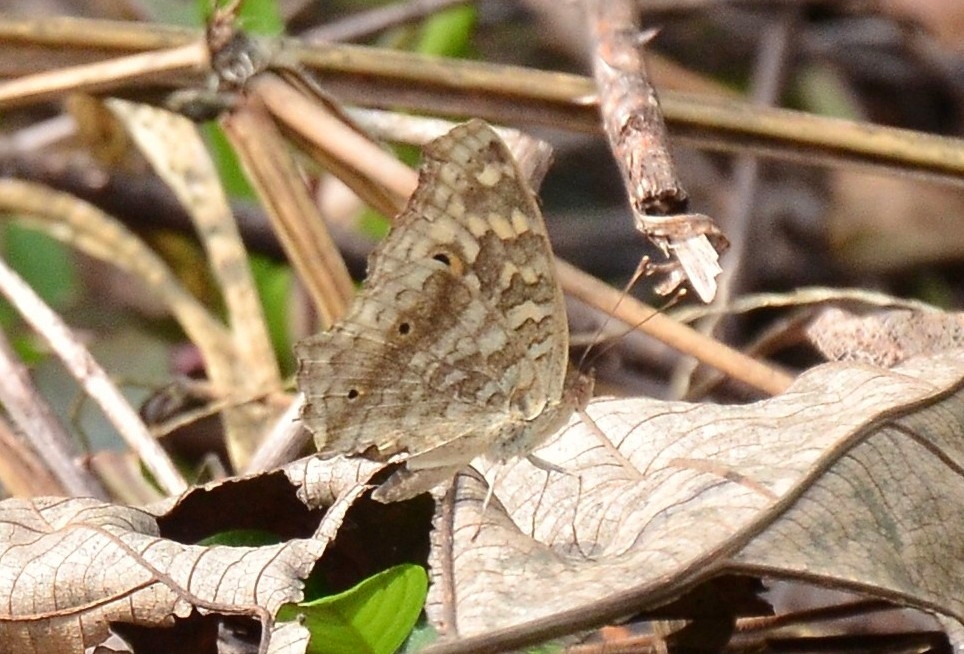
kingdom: Animalia
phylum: Arthropoda
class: Insecta
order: Lepidoptera
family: Nymphalidae
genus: Junonia
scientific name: Junonia lemonias
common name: Lemon pansy
